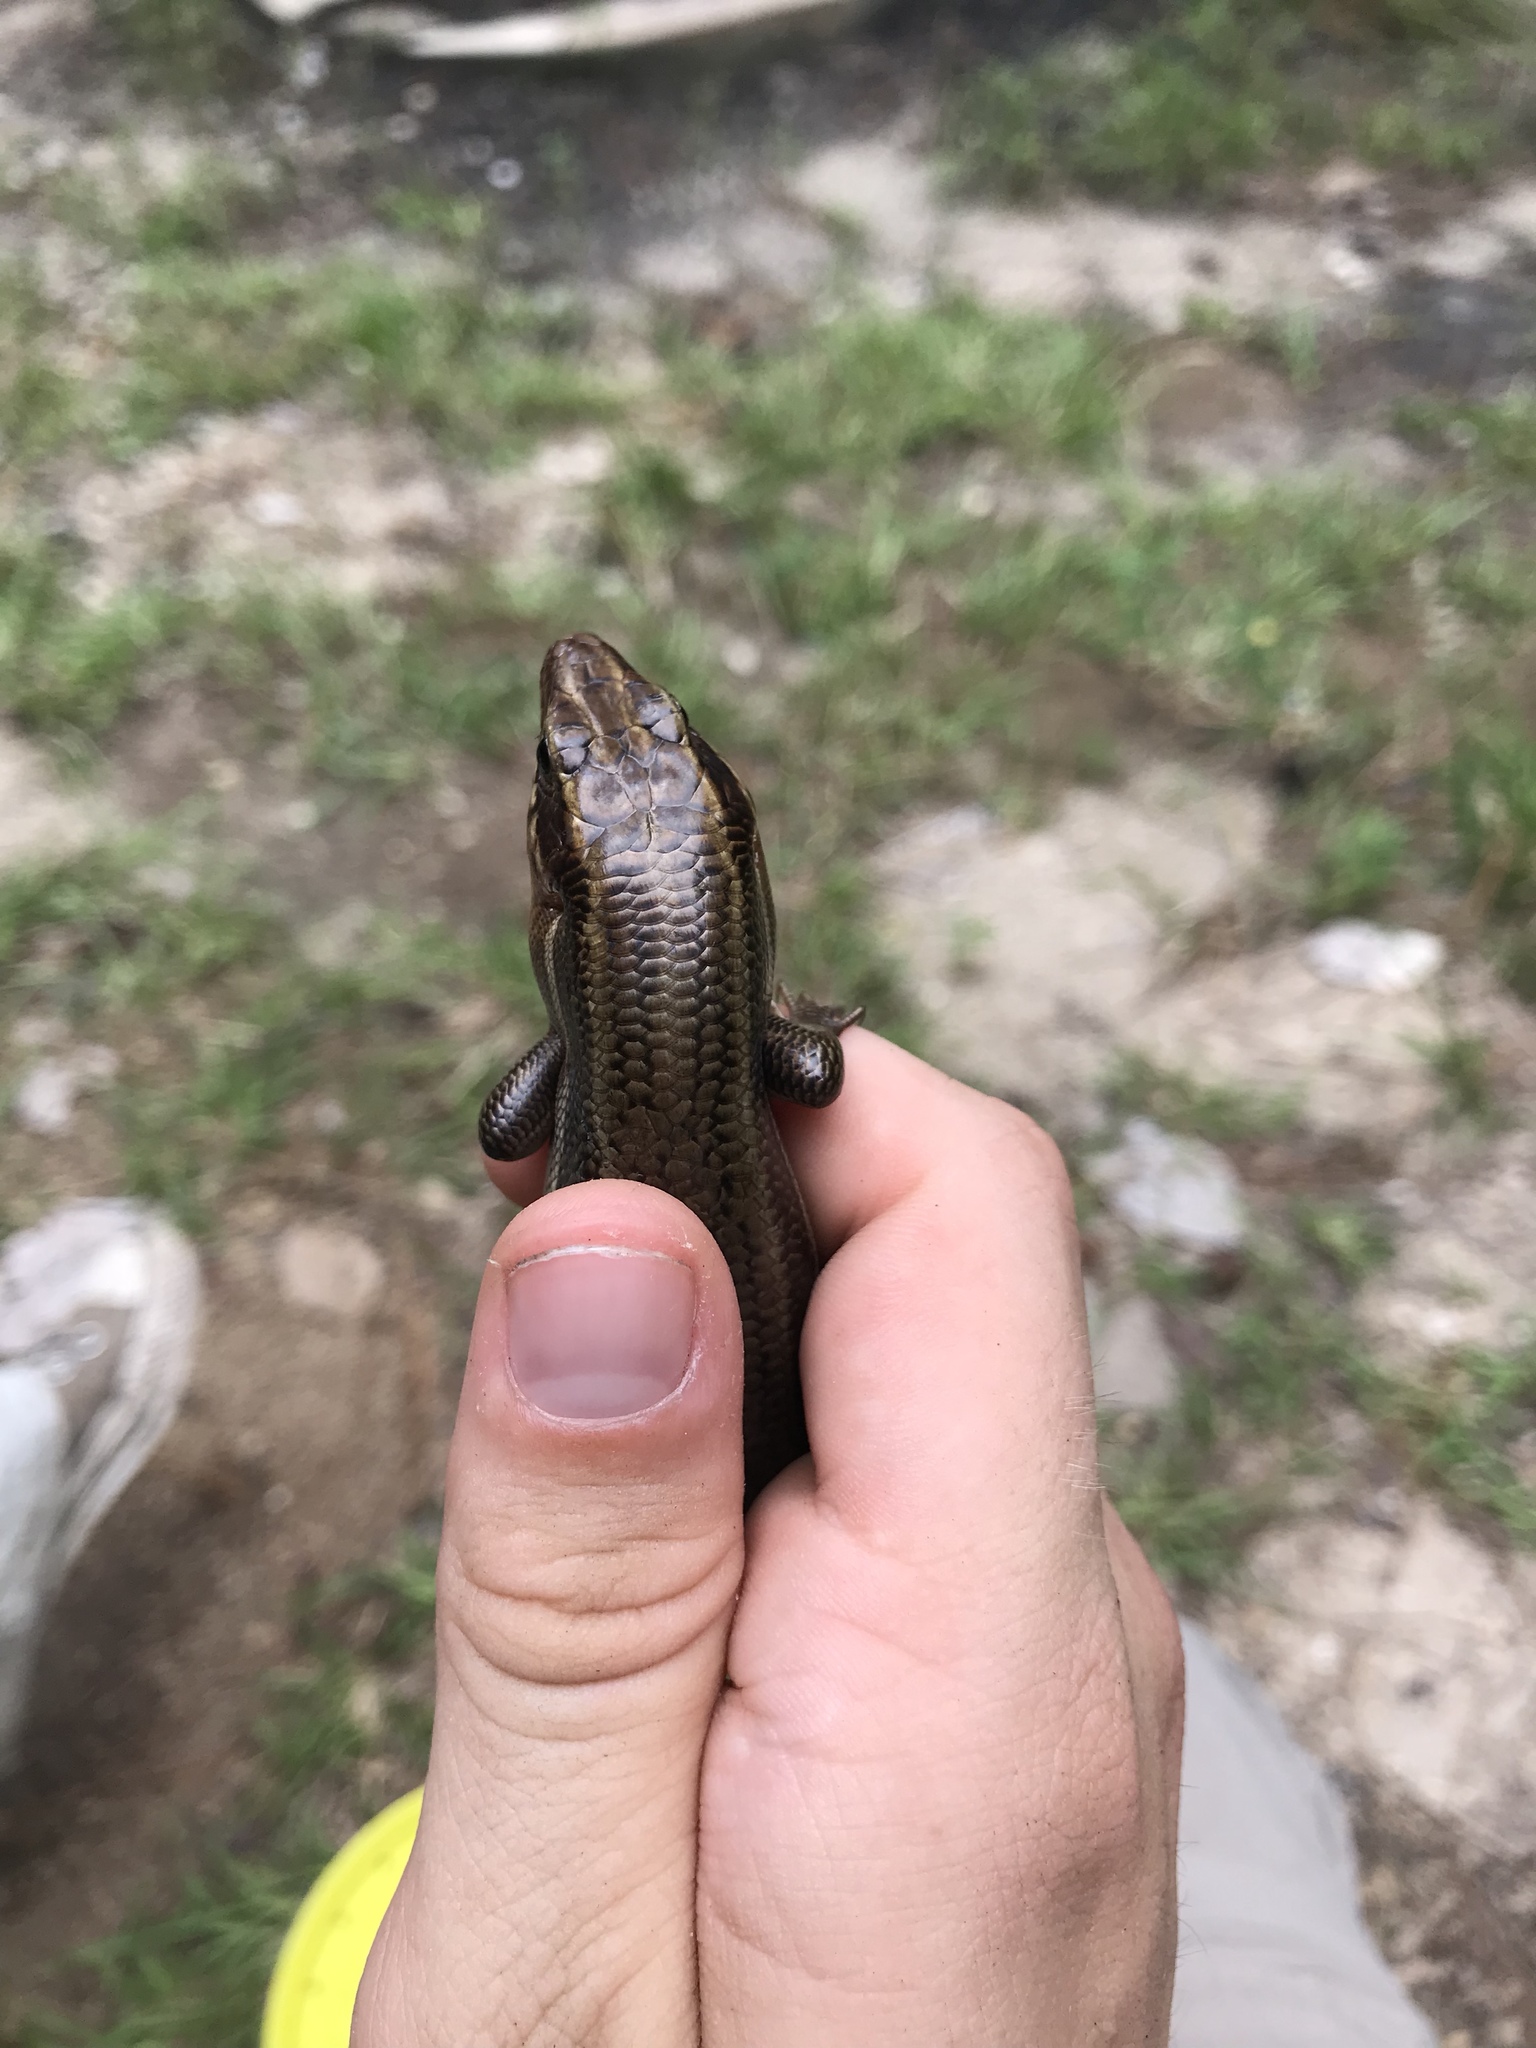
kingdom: Animalia
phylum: Chordata
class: Squamata
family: Scincidae
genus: Plestiodon
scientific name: Plestiodon laticeps
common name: Broadhead skink
